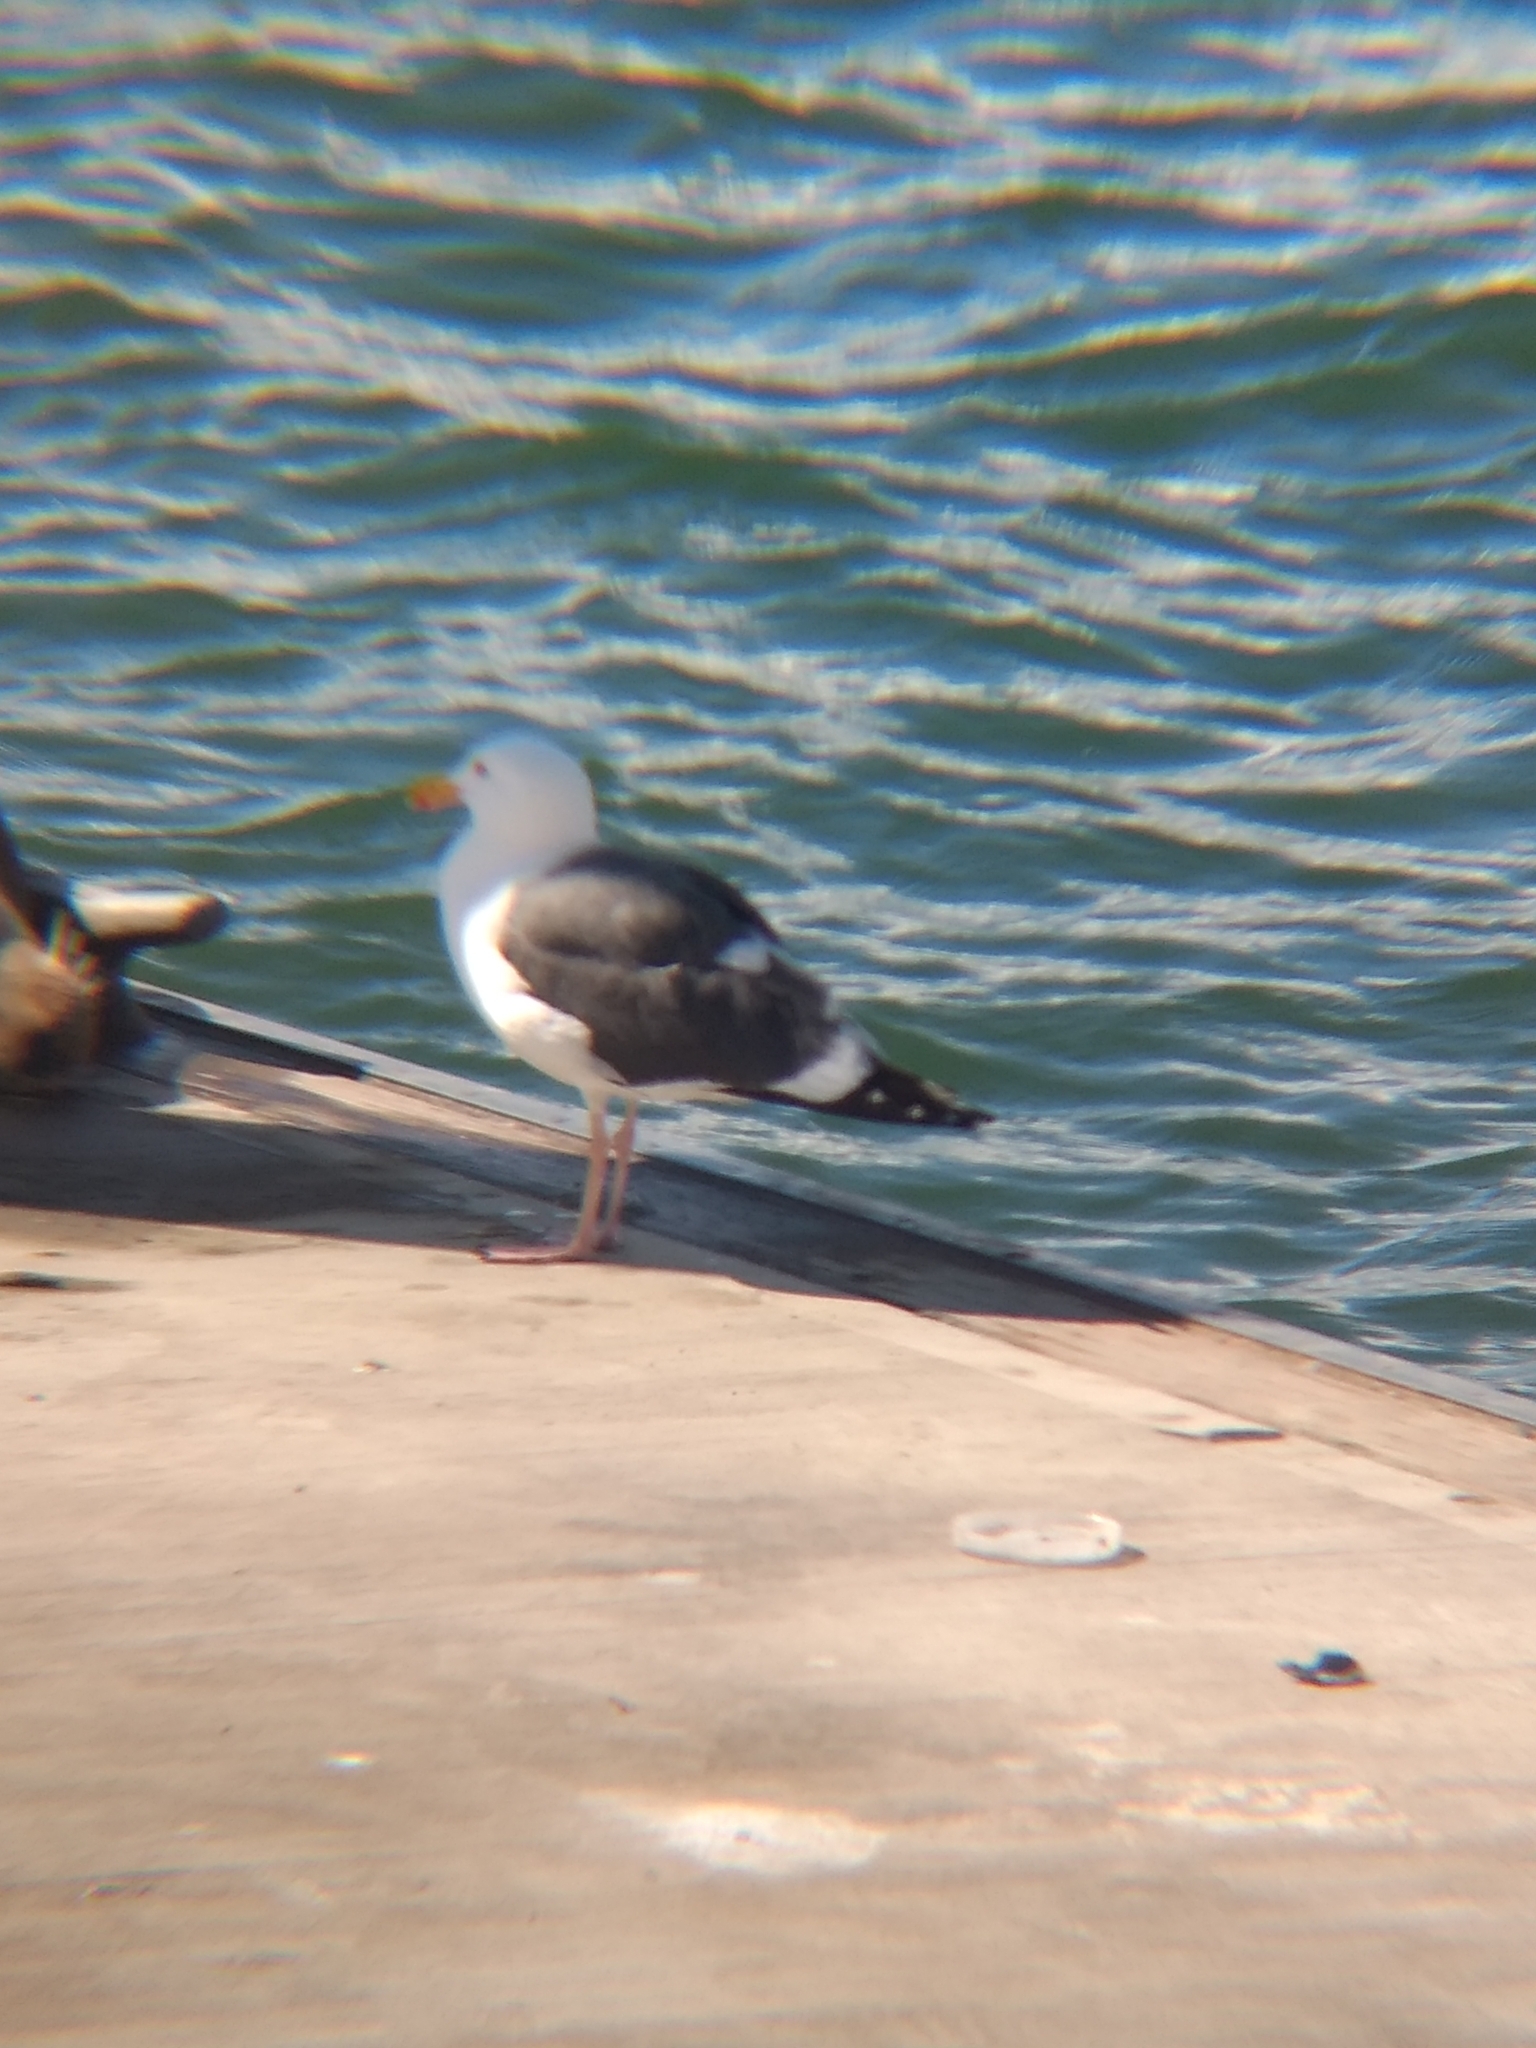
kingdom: Animalia
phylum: Chordata
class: Aves
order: Charadriiformes
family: Laridae
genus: Larus
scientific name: Larus occidentalis
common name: Western gull
